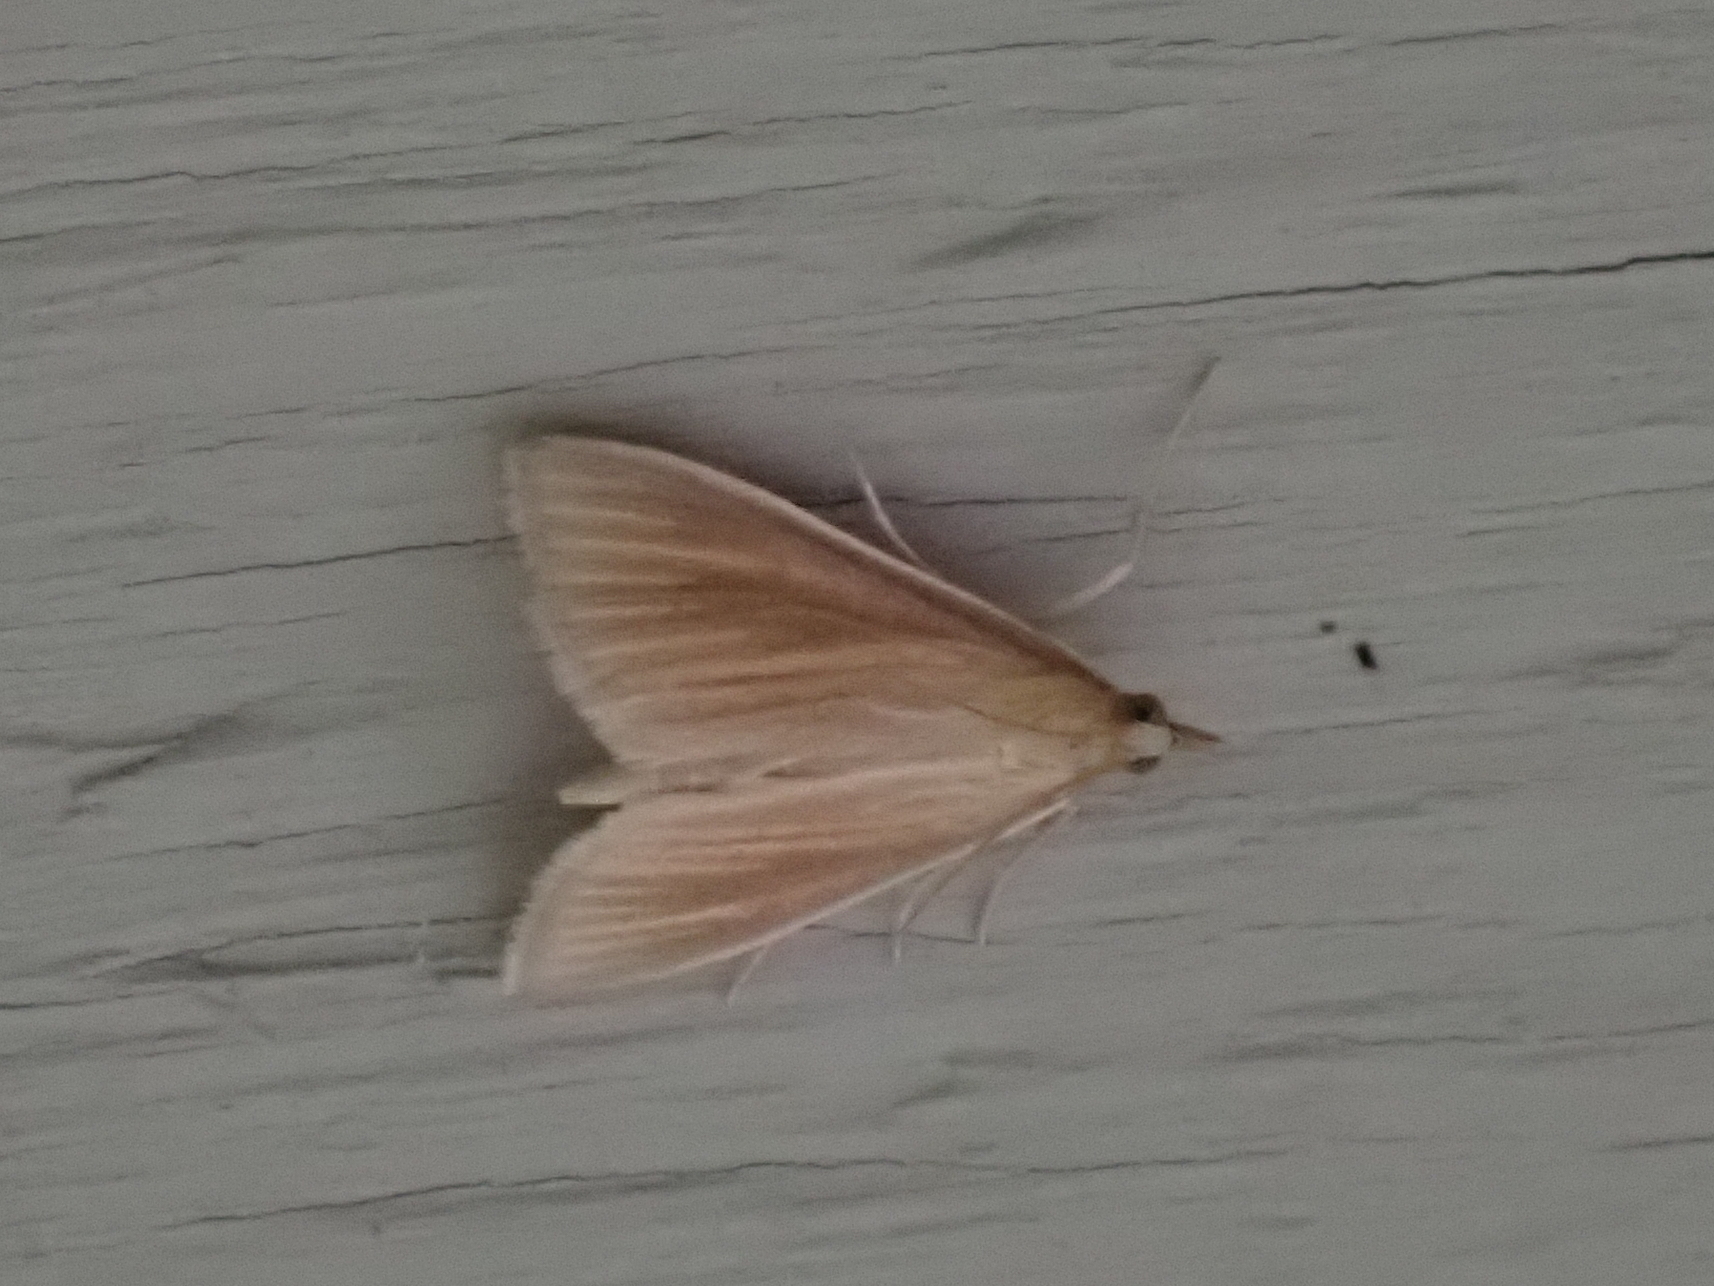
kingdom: Animalia
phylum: Arthropoda
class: Insecta
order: Lepidoptera
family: Crambidae
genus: Nascia
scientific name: Nascia acutellus
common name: Streaked orange moth
